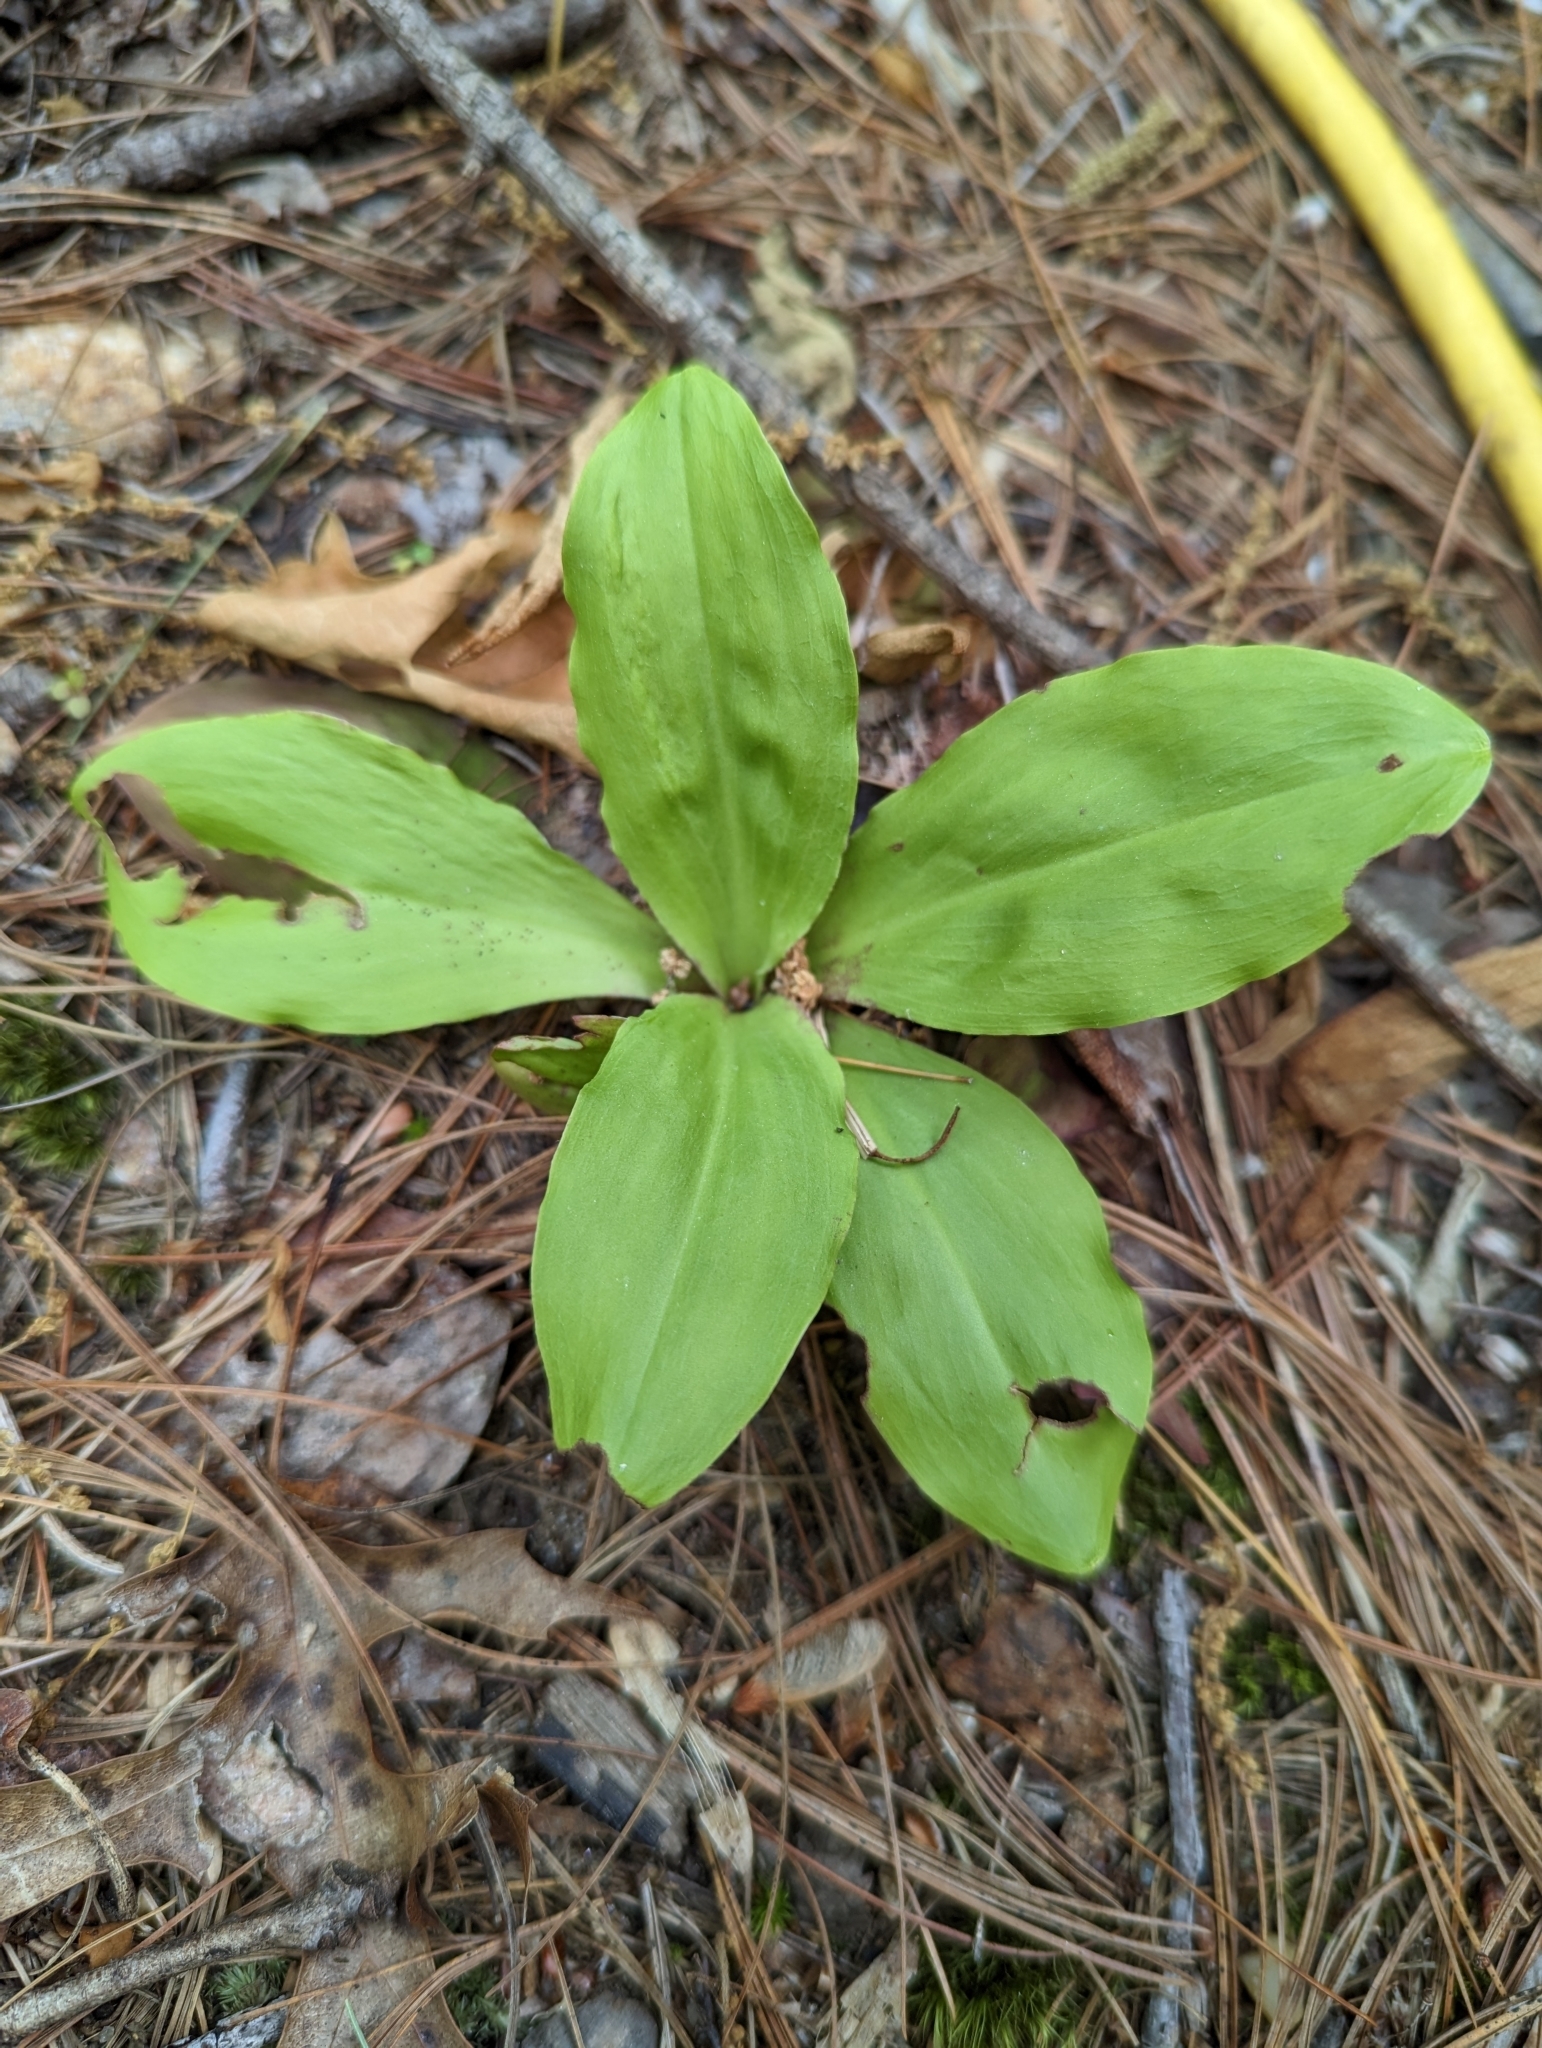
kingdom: Plantae
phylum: Tracheophyta
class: Liliopsida
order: Liliales
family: Melanthiaceae
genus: Chamaelirium
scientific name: Chamaelirium luteum
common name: Fairy-wand
